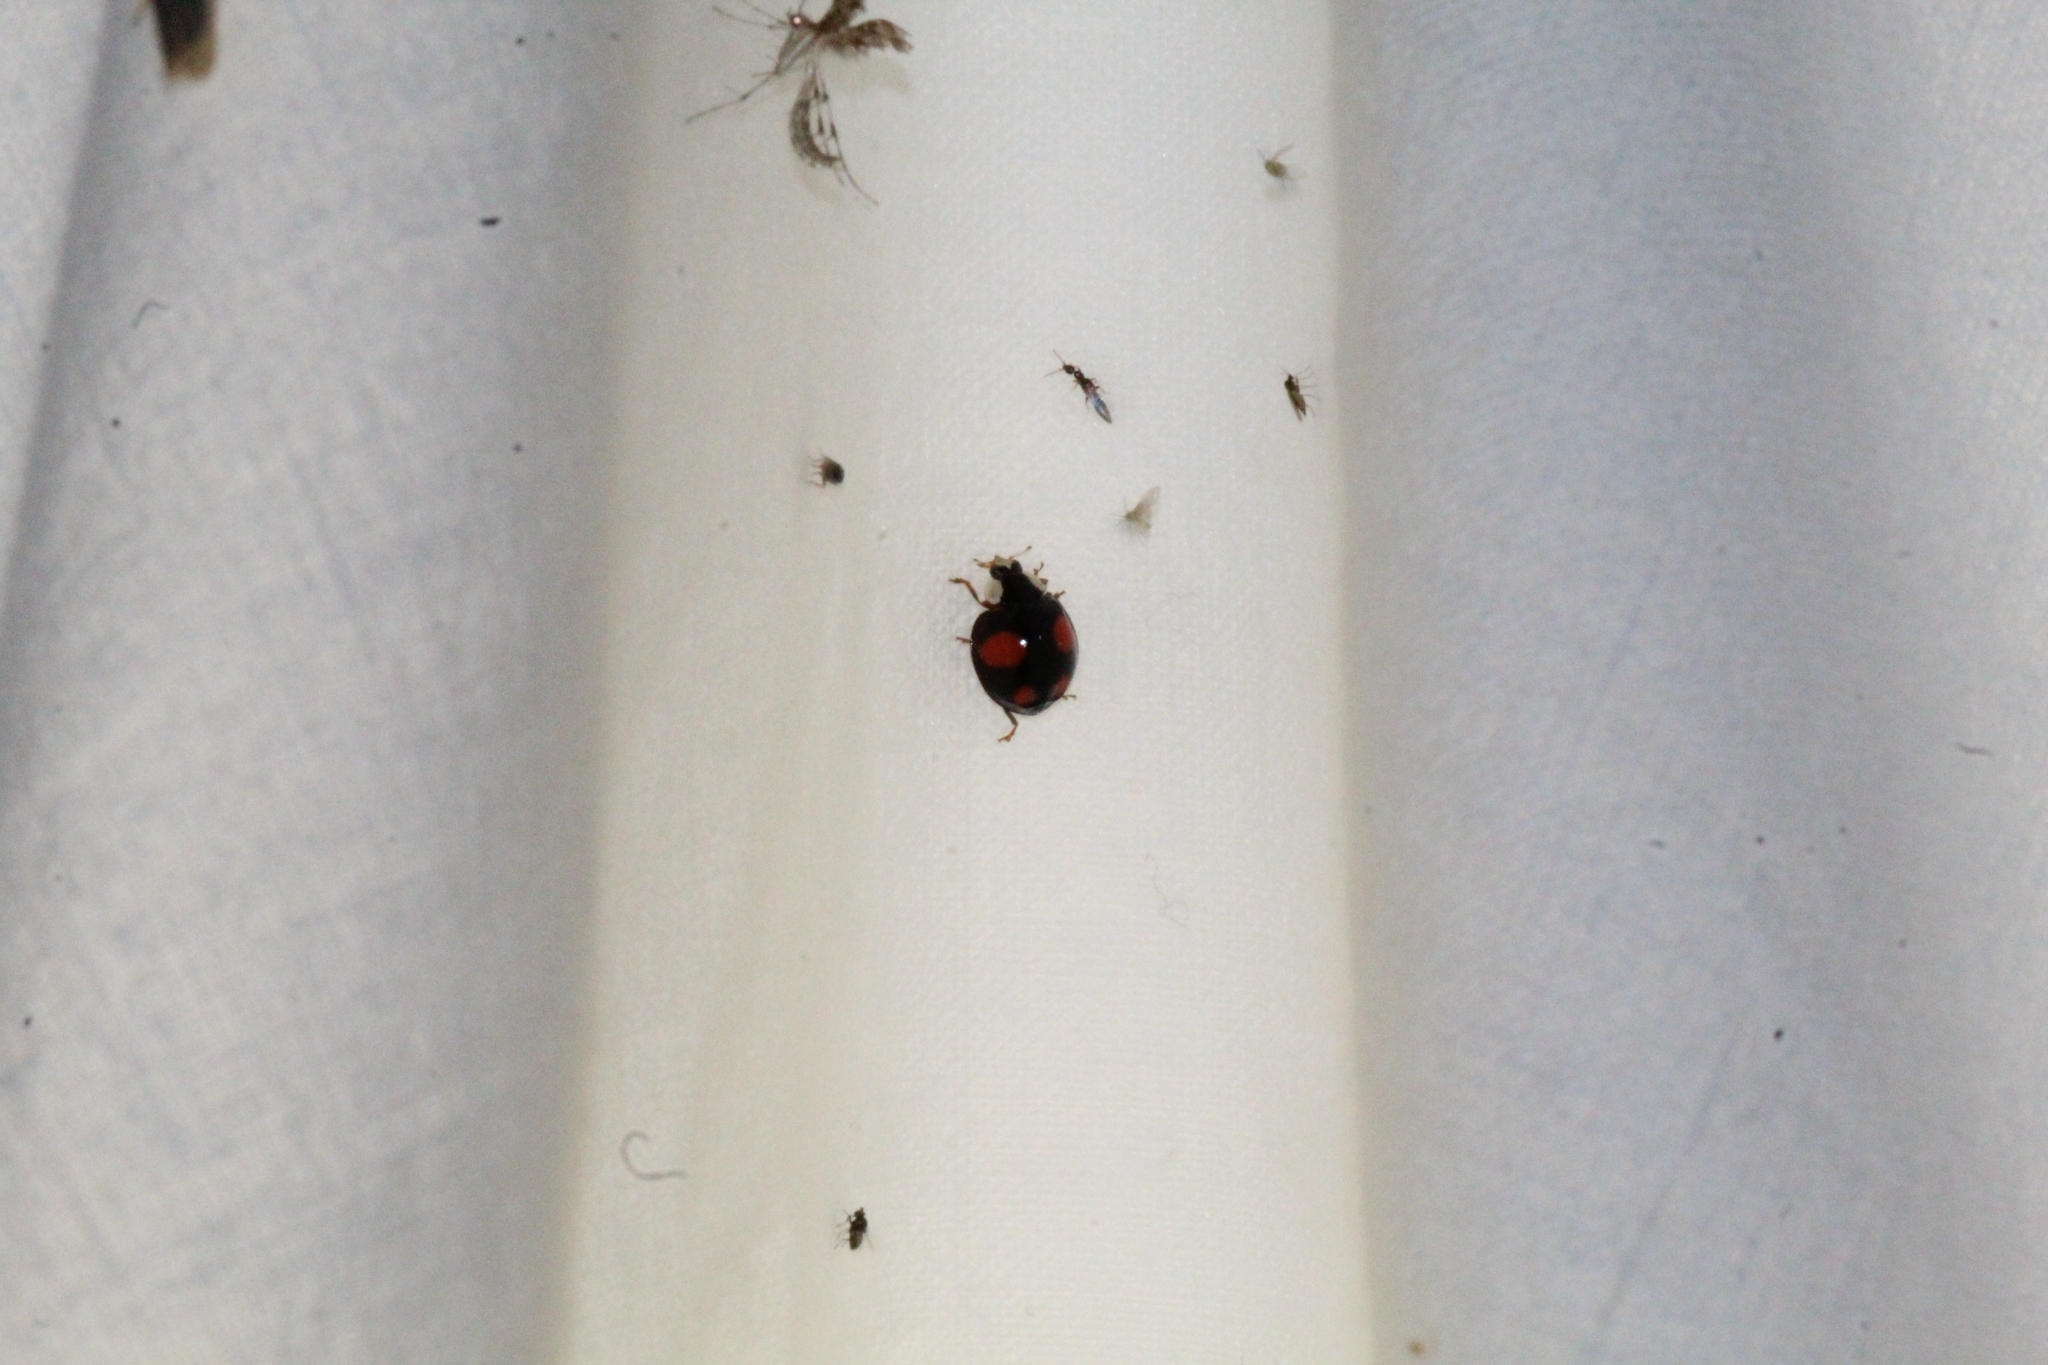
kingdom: Animalia
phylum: Arthropoda
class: Insecta
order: Coleoptera
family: Coccinellidae
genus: Harmonia
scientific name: Harmonia axyridis
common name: Harlequin ladybird
